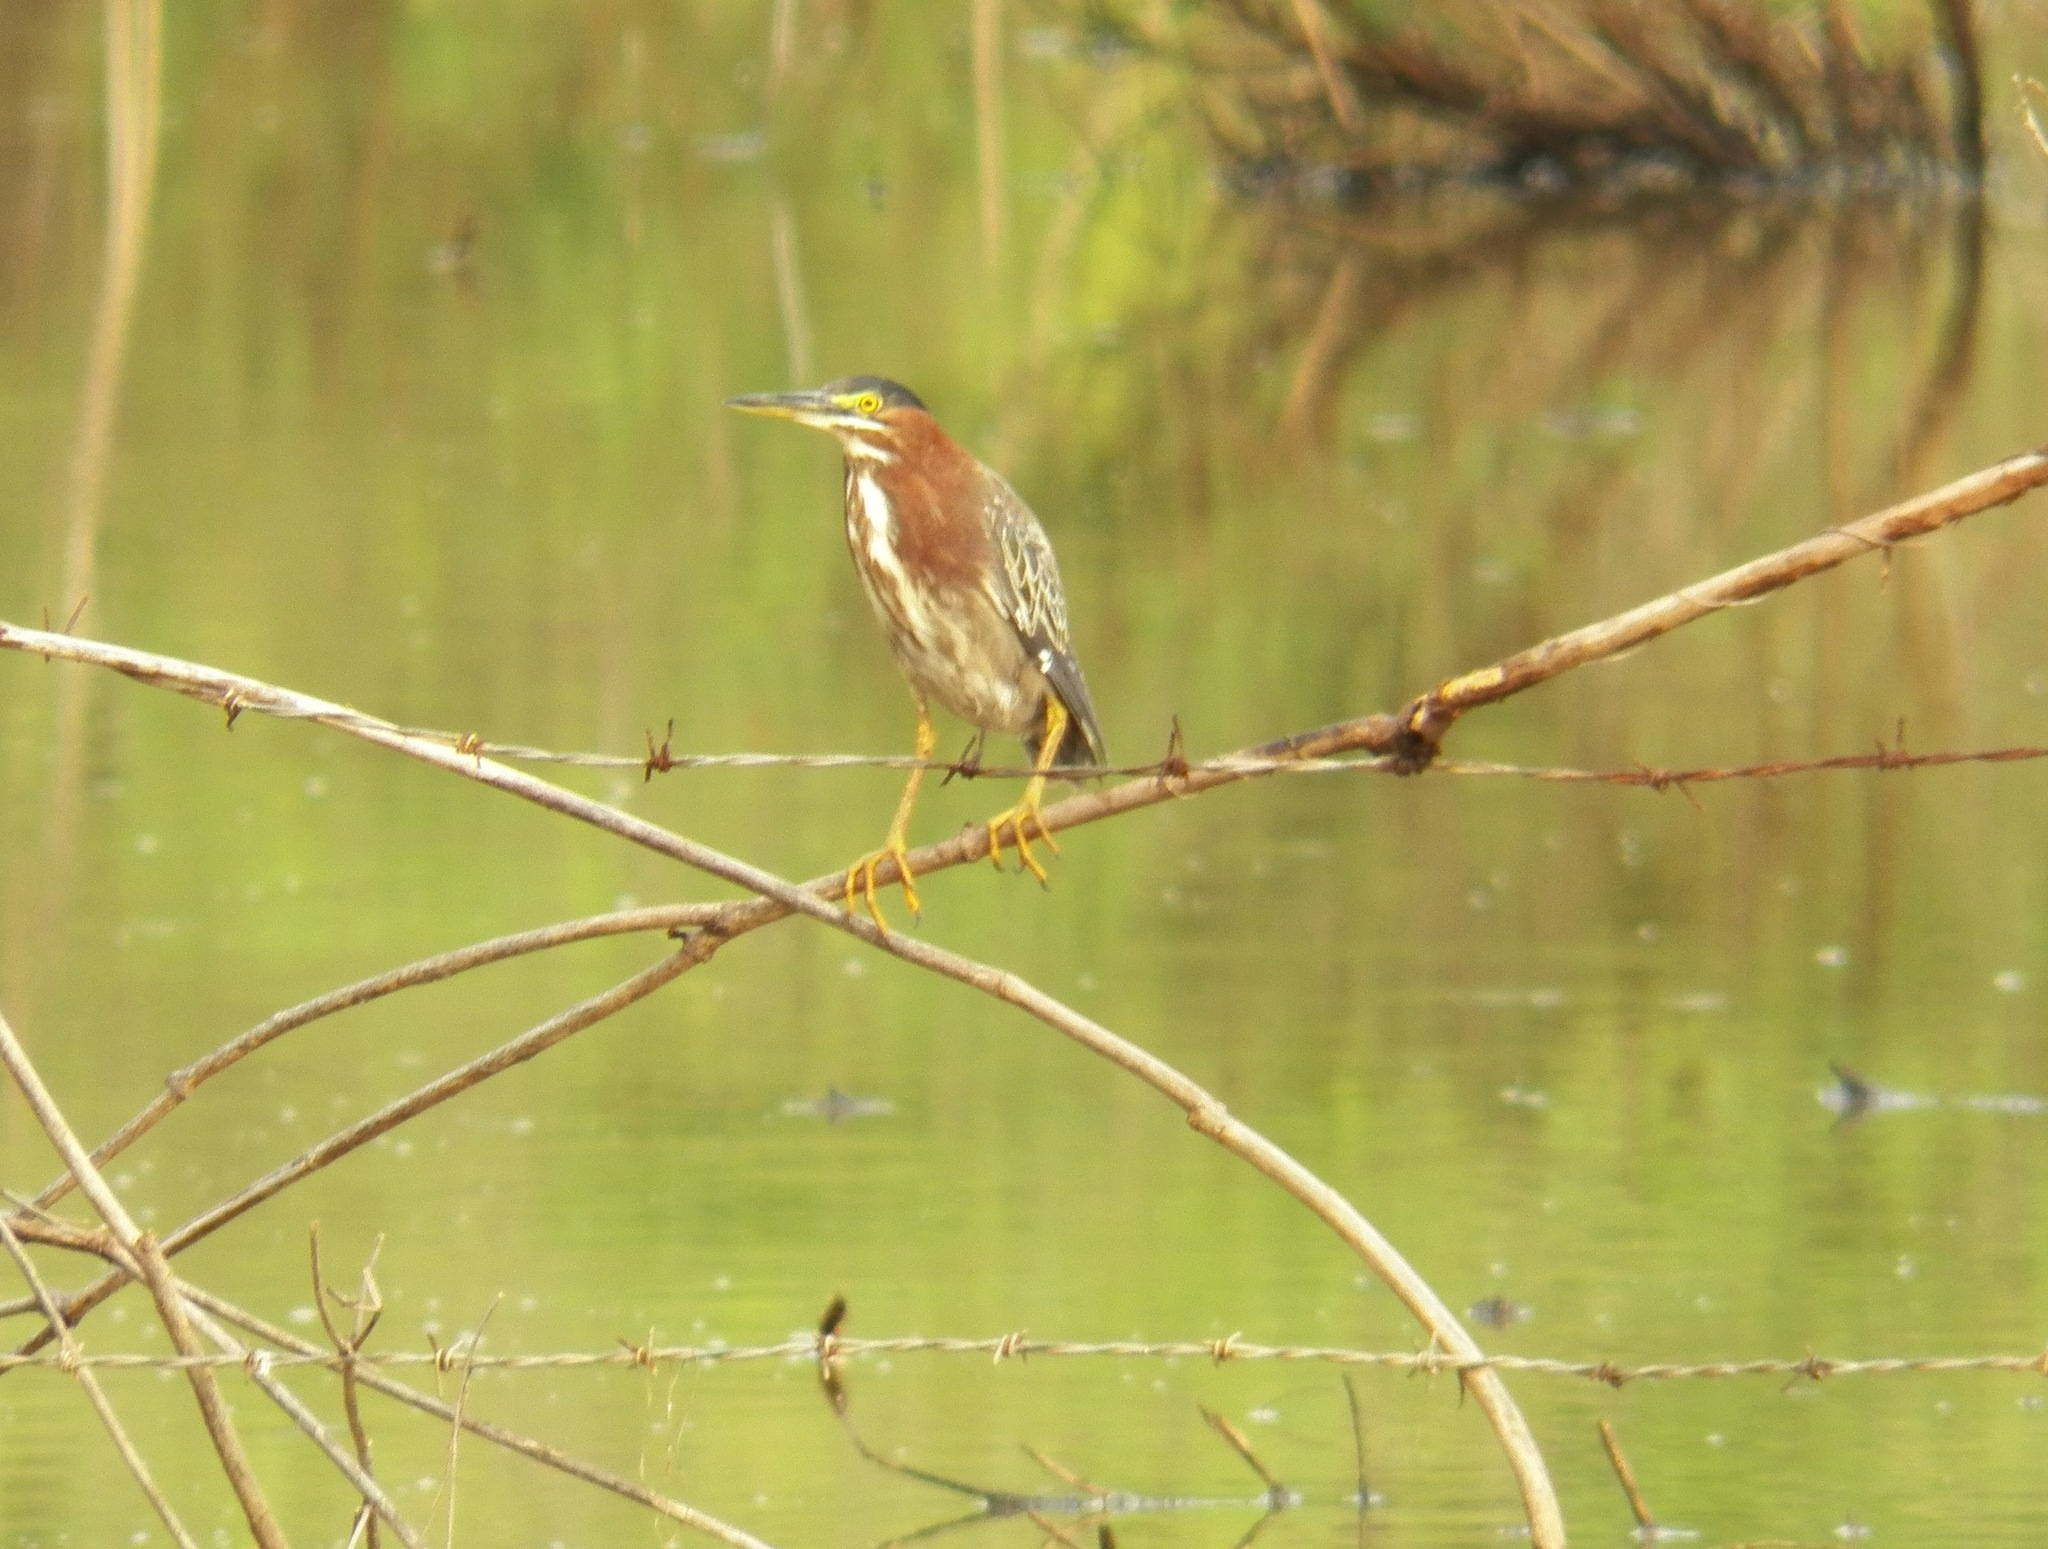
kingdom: Animalia
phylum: Chordata
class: Aves
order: Pelecaniformes
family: Ardeidae
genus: Butorides
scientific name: Butorides virescens
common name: Green heron
